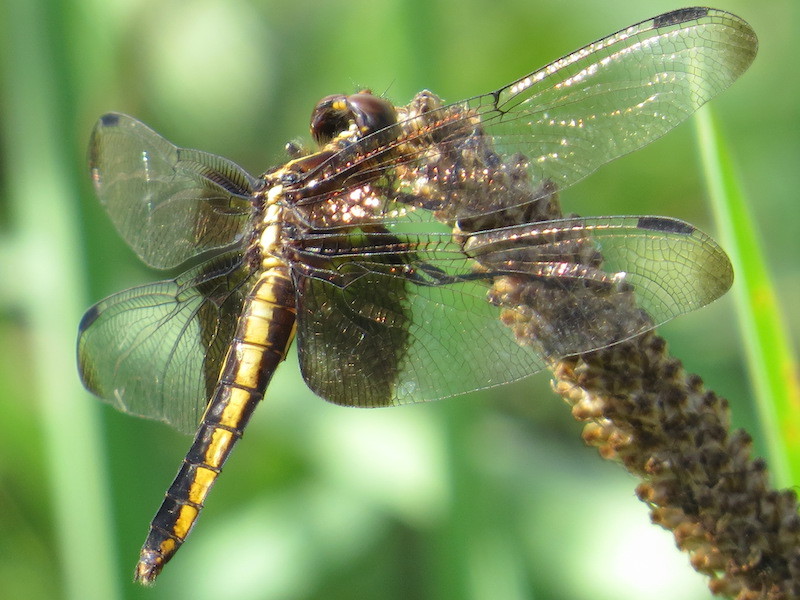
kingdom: Animalia
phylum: Arthropoda
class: Insecta
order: Odonata
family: Libellulidae
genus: Libellula
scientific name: Libellula luctuosa
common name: Widow skimmer
